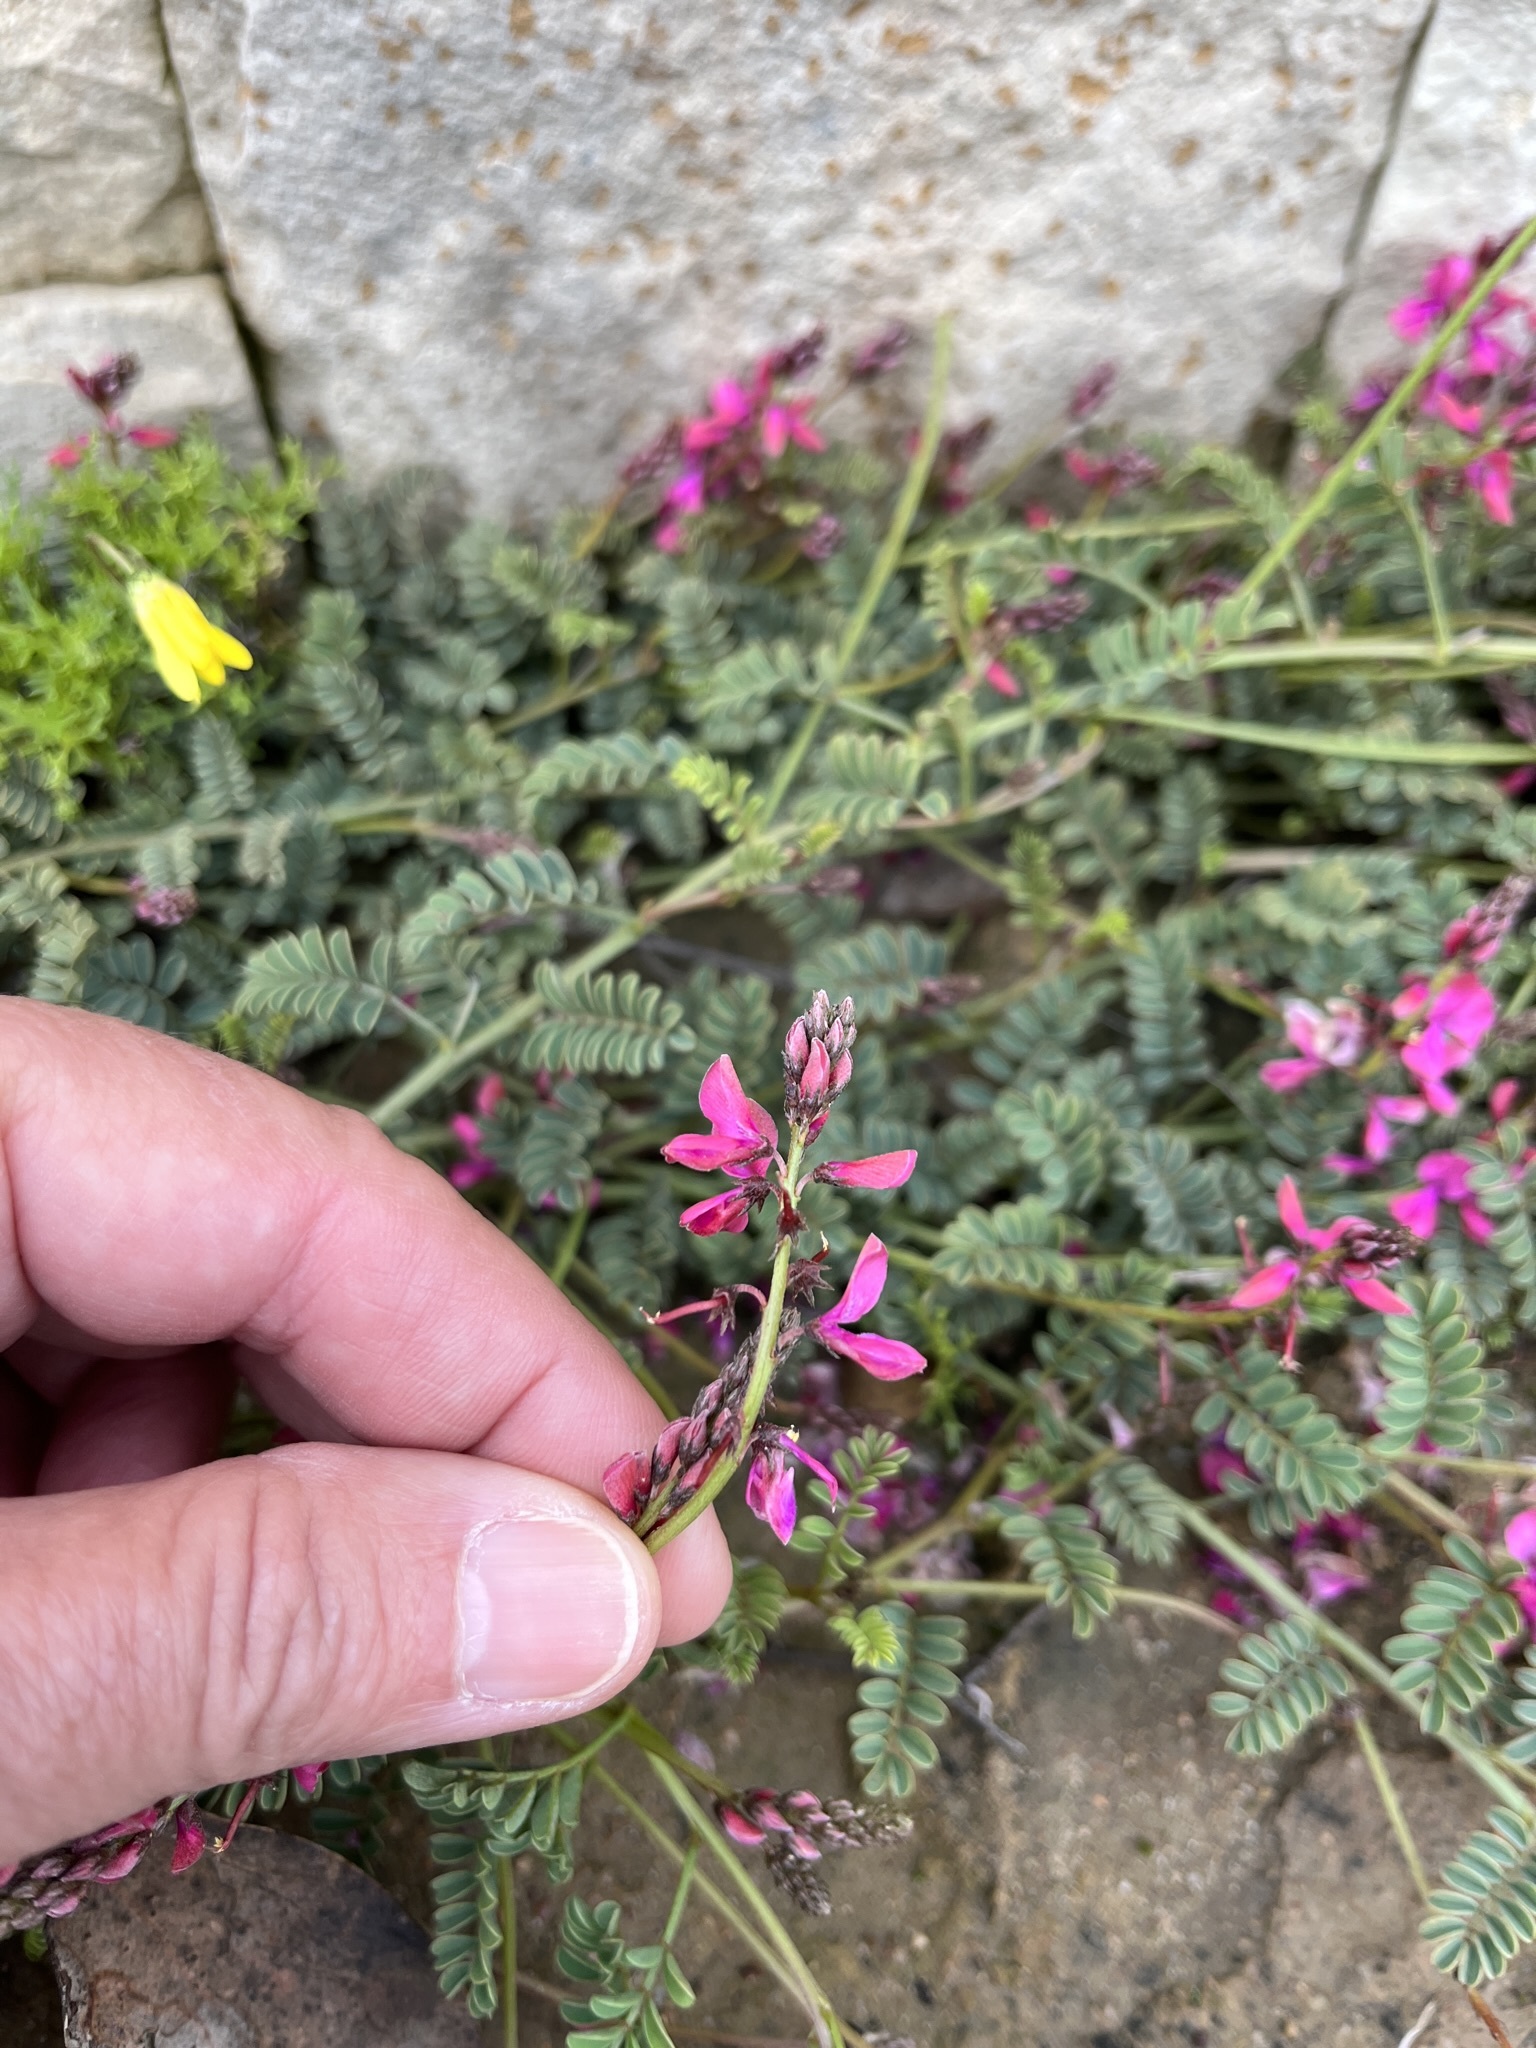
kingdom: Plantae
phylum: Tracheophyta
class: Magnoliopsida
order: Fabales
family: Fabaceae
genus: Indigofera
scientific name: Indigofera
